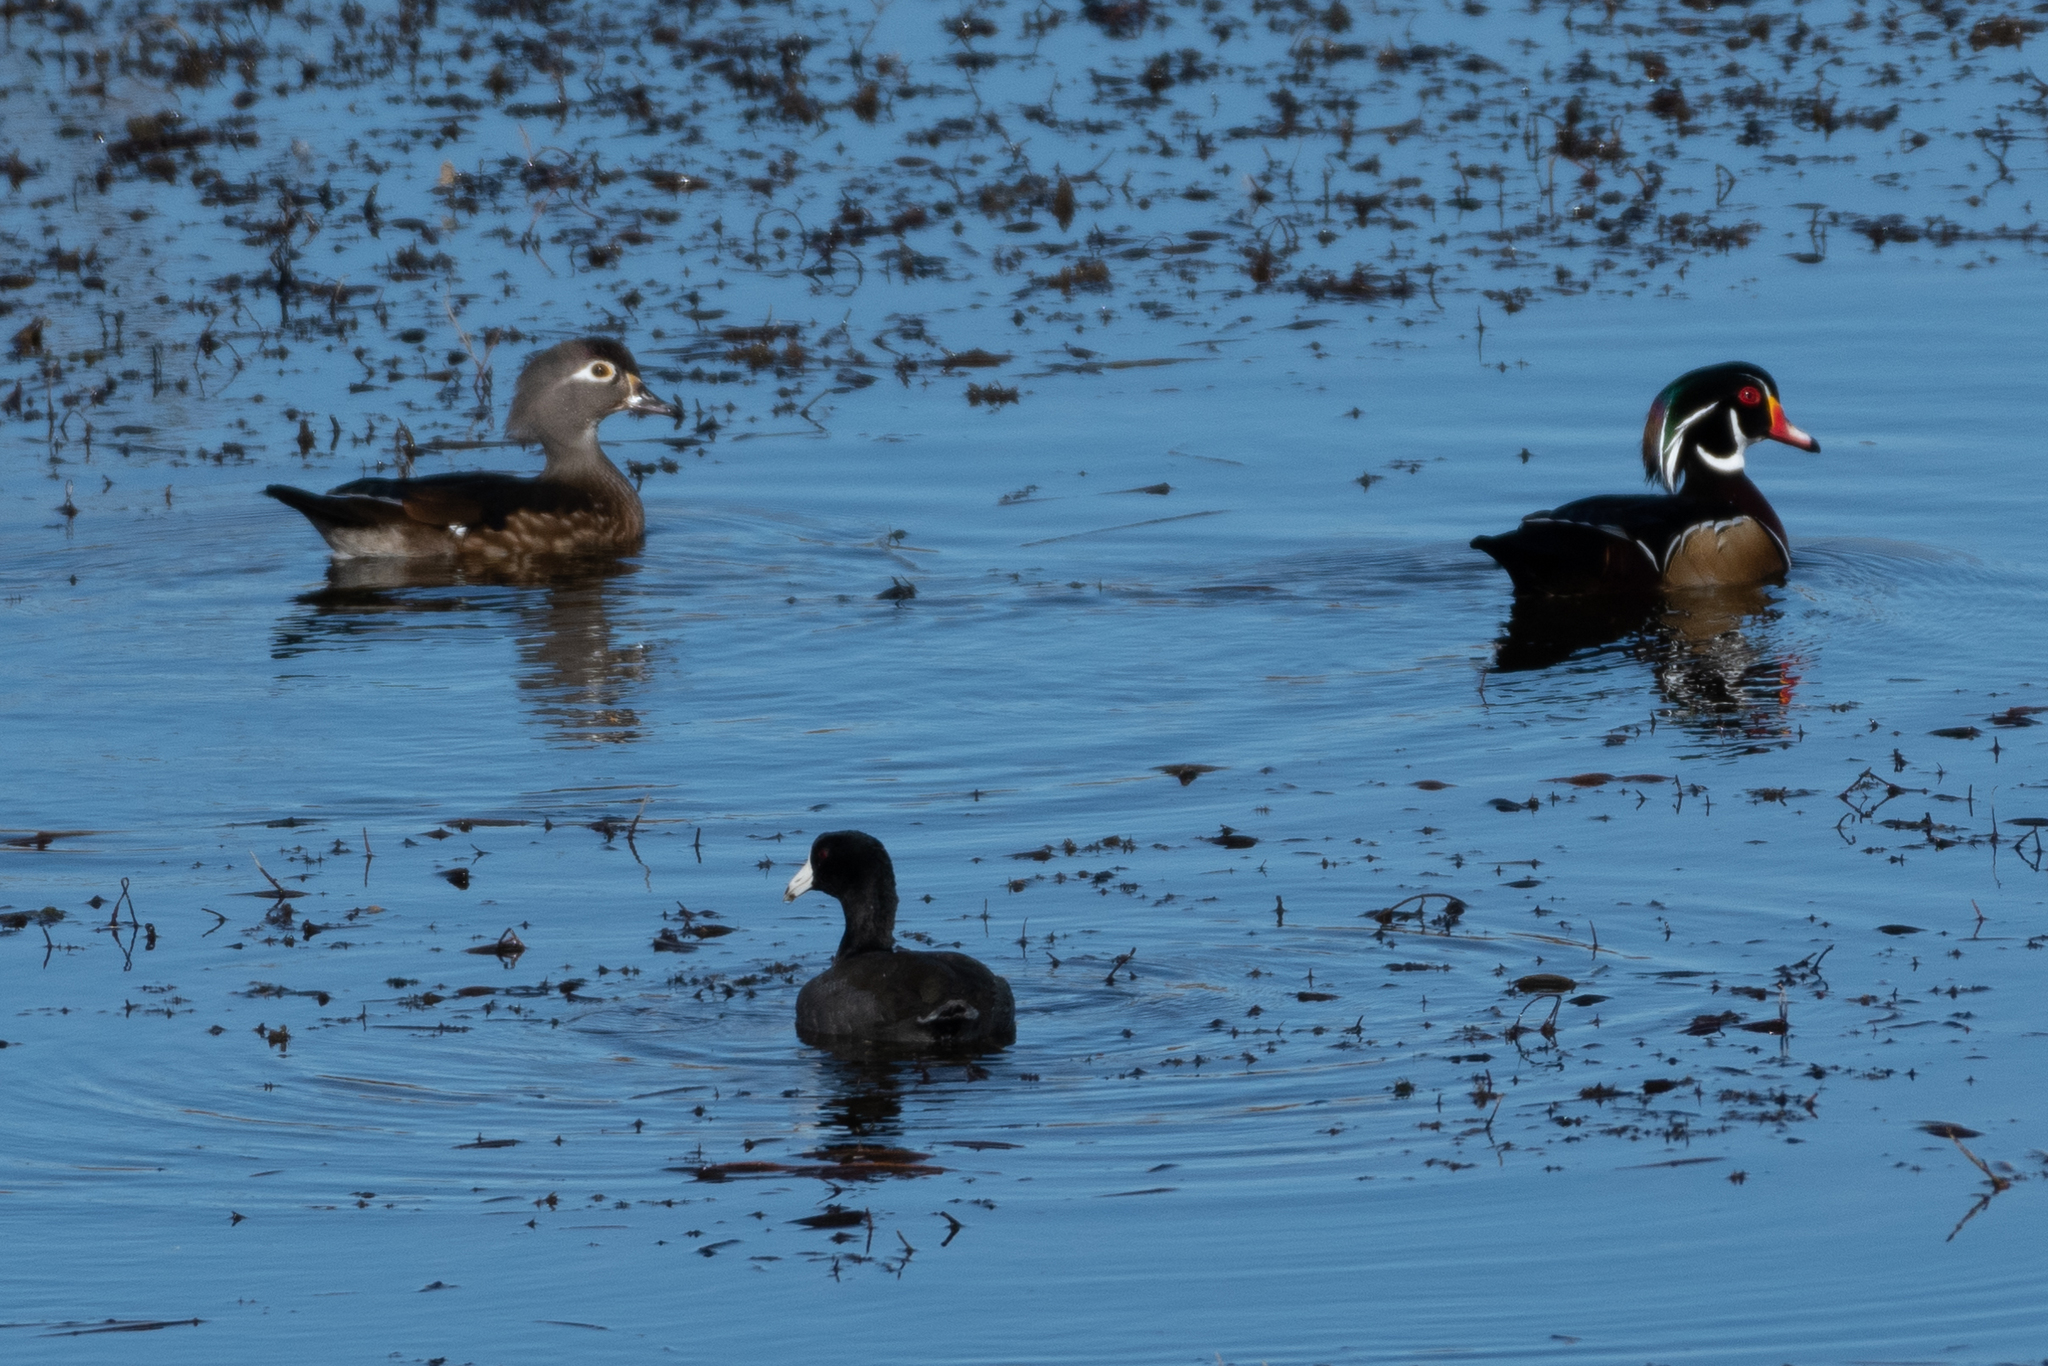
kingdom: Animalia
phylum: Chordata
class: Aves
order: Anseriformes
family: Anatidae
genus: Aix
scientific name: Aix sponsa
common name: Wood duck
